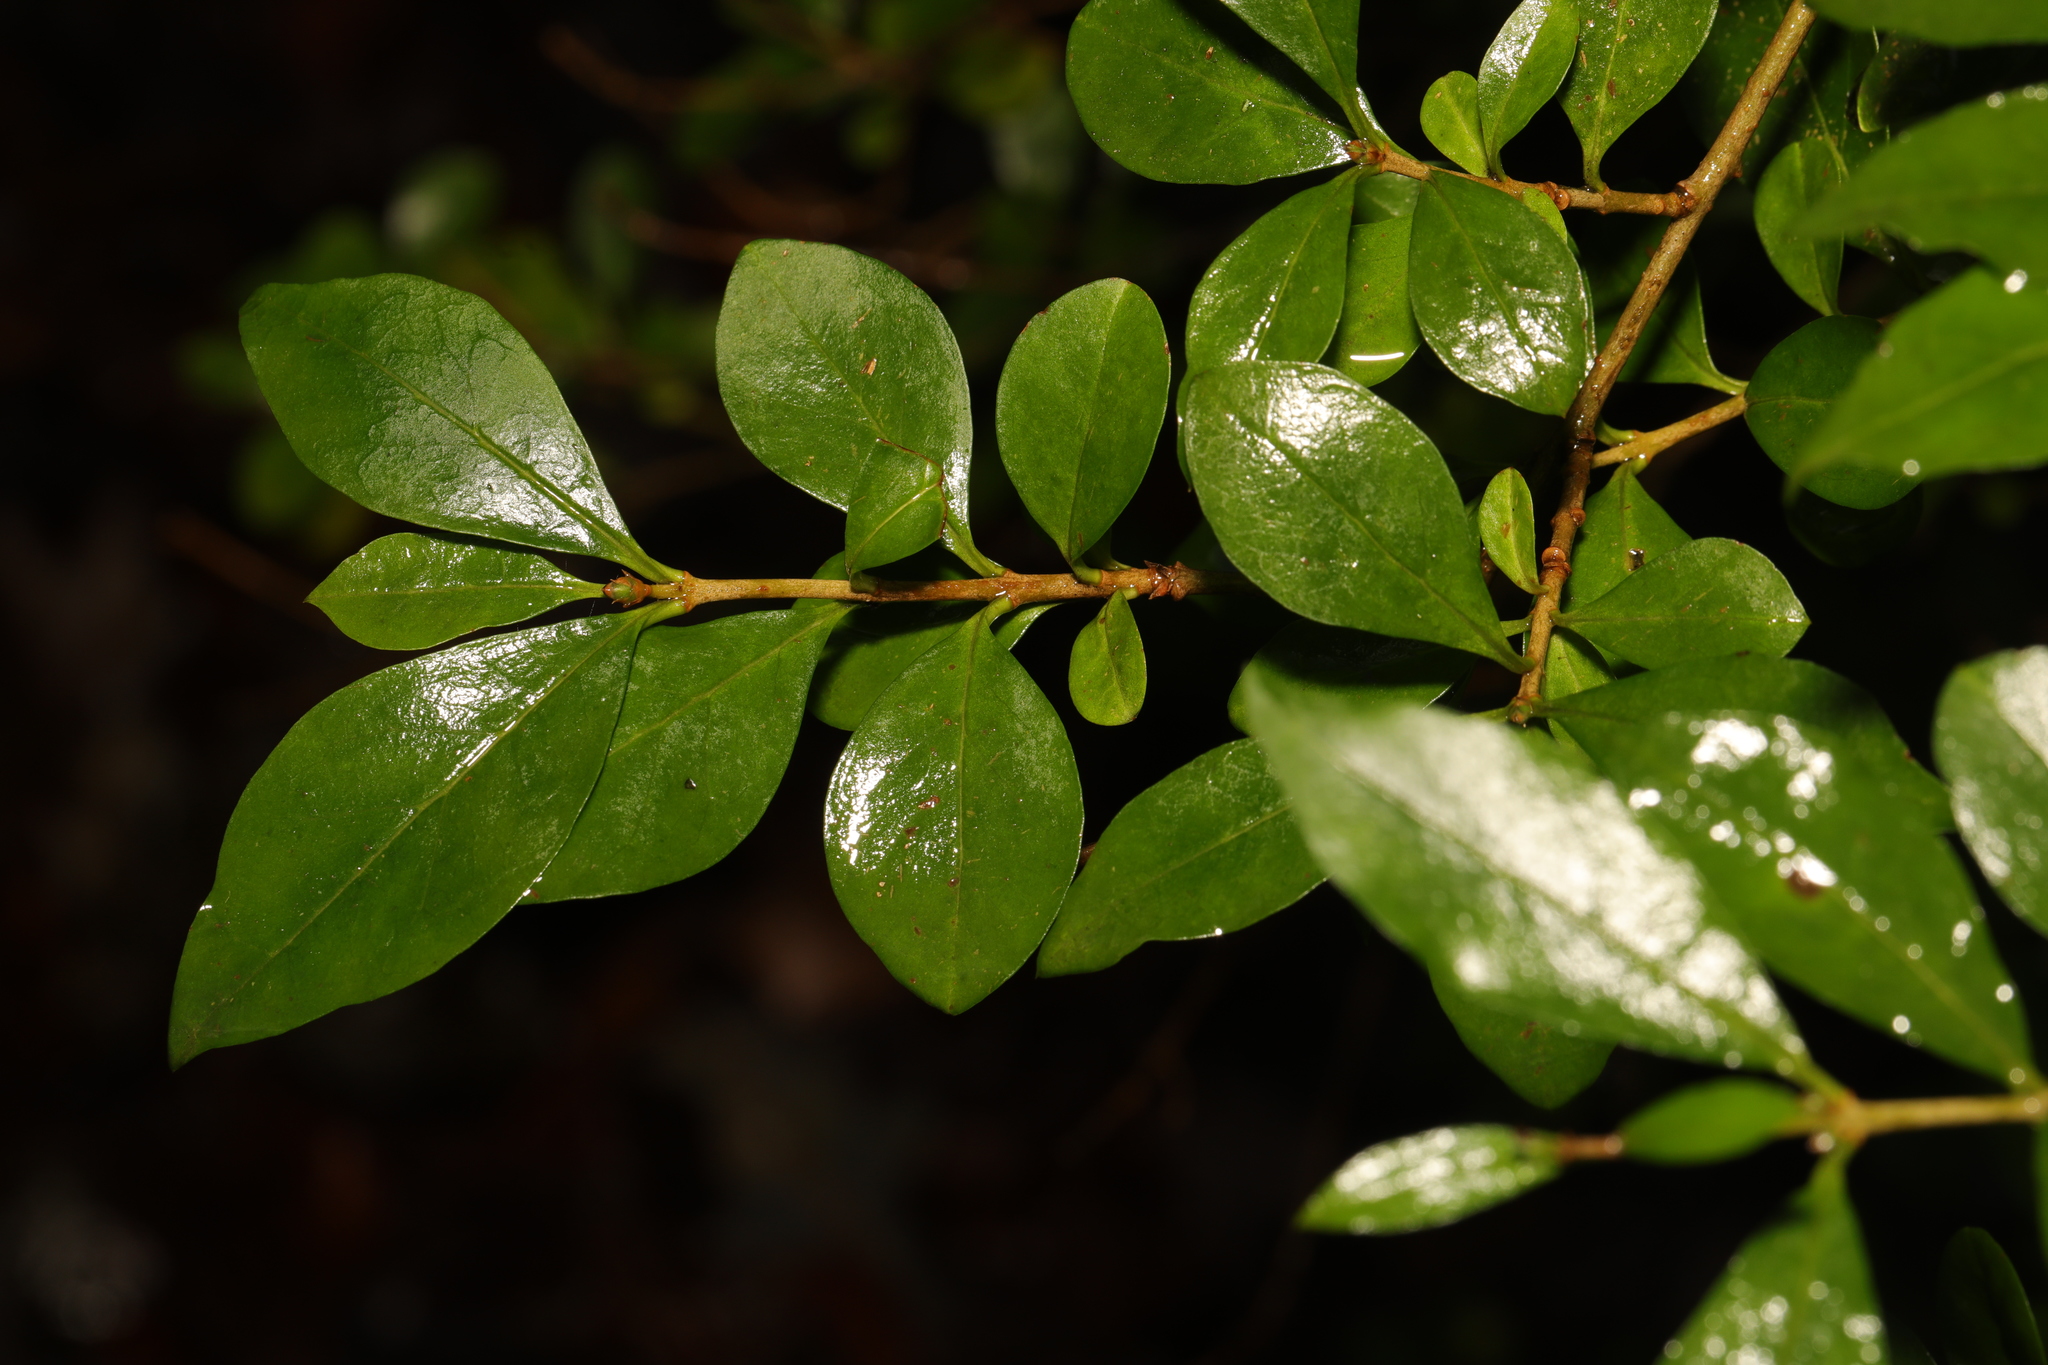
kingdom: Plantae
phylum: Tracheophyta
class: Magnoliopsida
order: Lamiales
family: Oleaceae
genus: Ligustrum
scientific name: Ligustrum ovalifolium
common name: California privet
